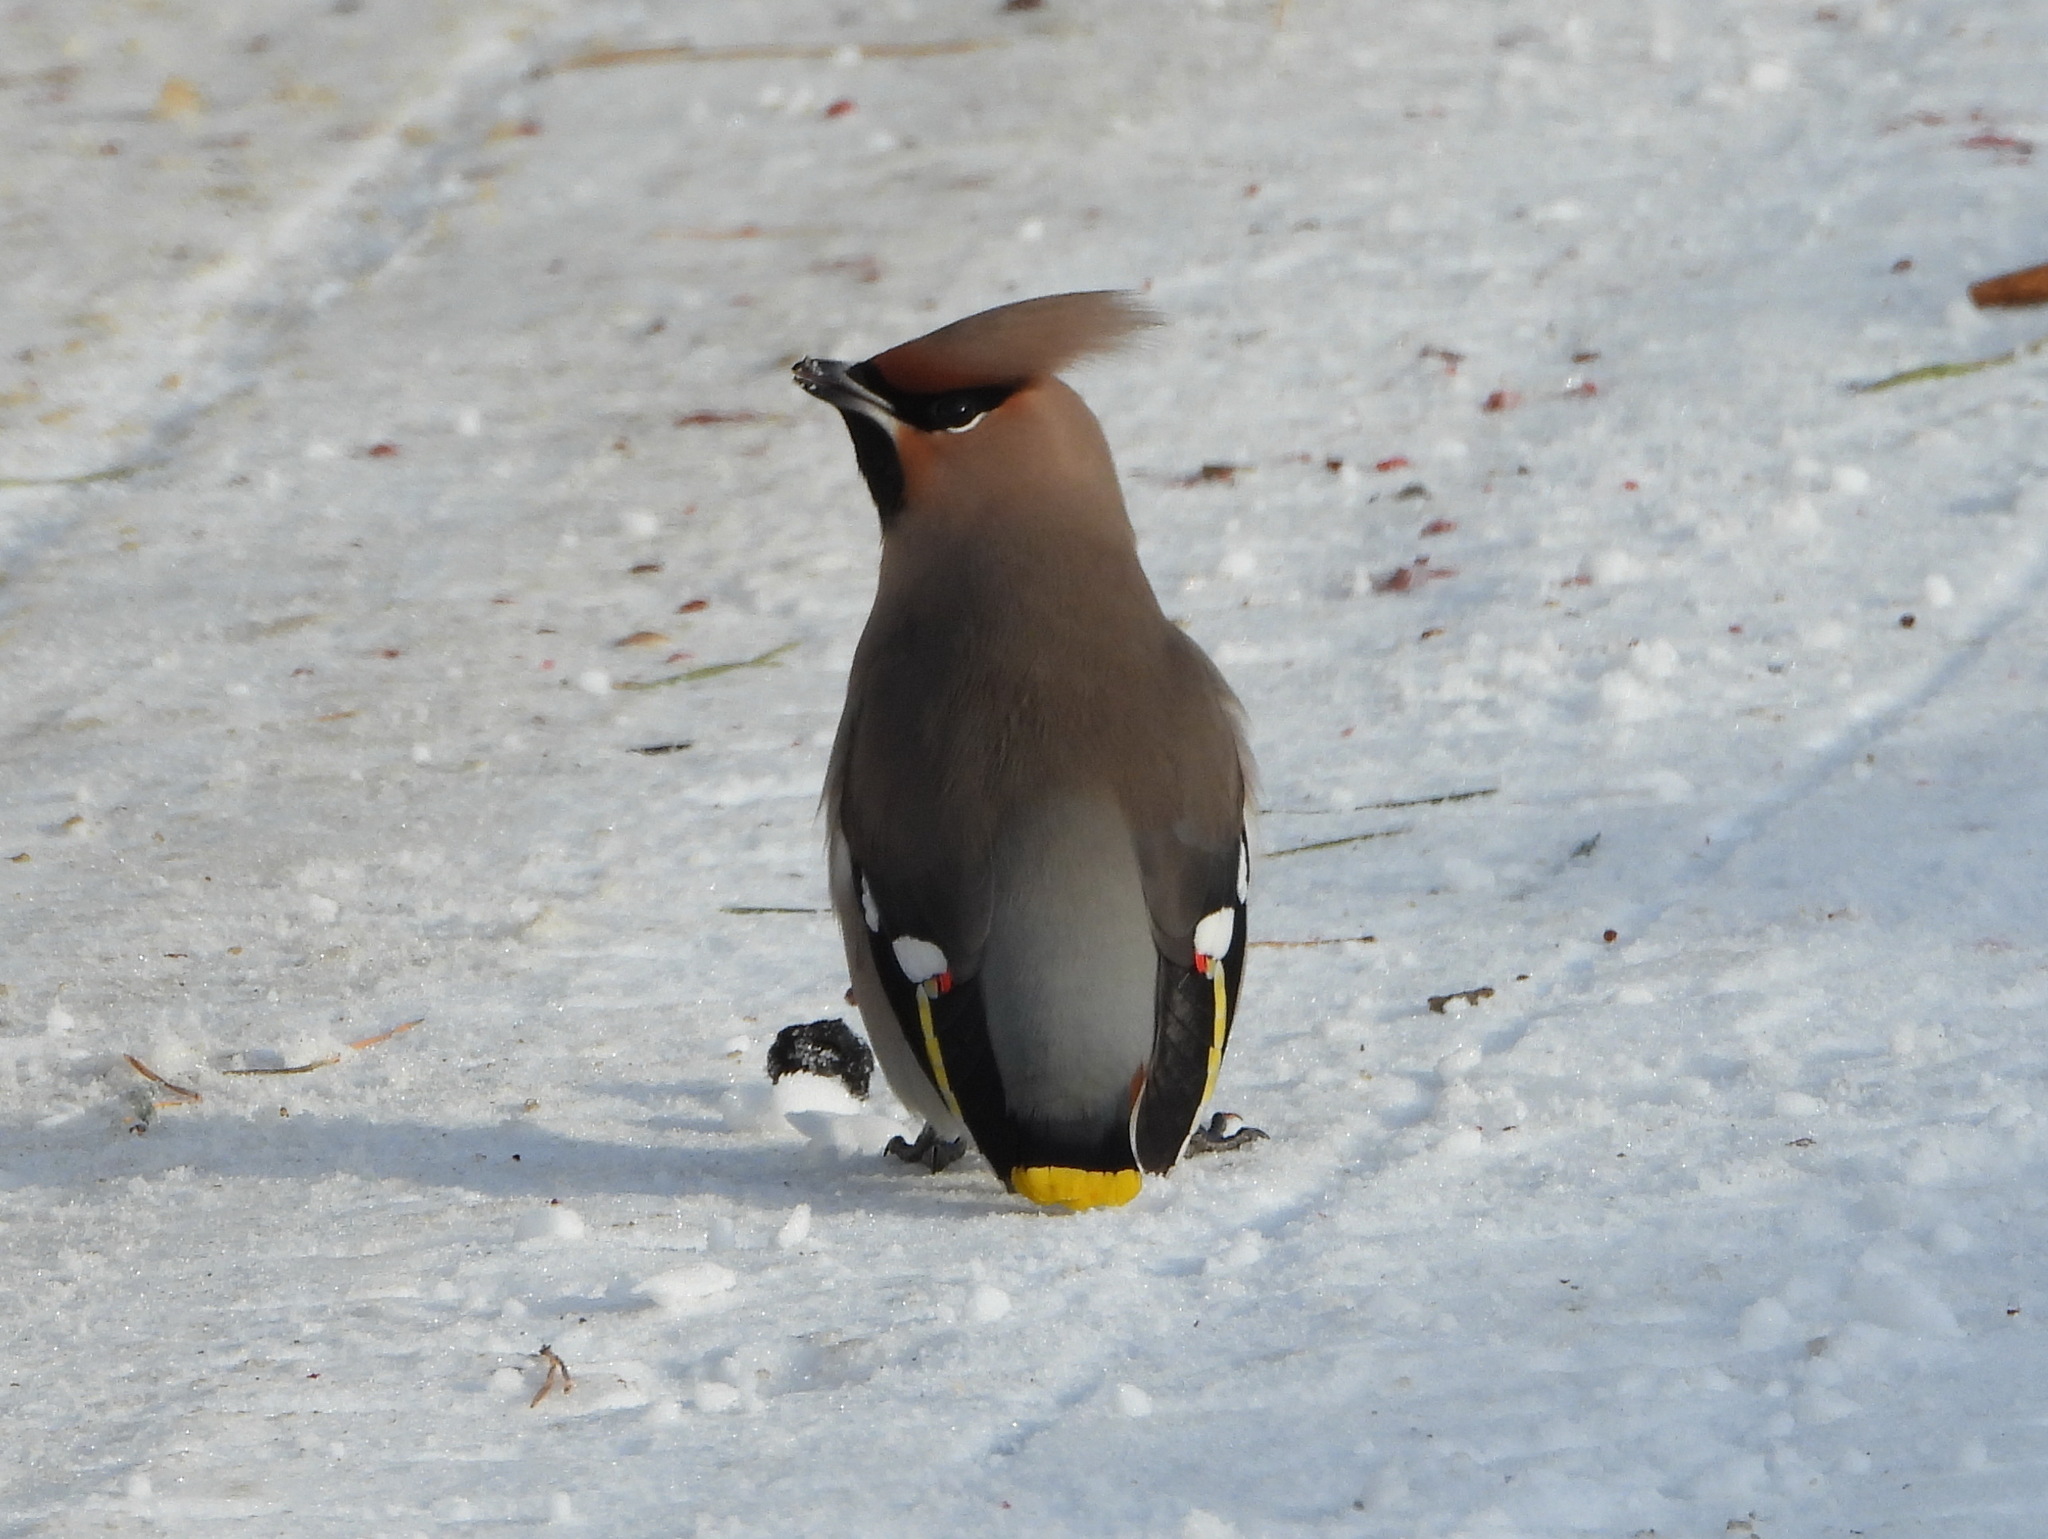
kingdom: Animalia
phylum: Chordata
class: Aves
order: Passeriformes
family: Bombycillidae
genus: Bombycilla
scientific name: Bombycilla garrulus
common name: Bohemian waxwing
